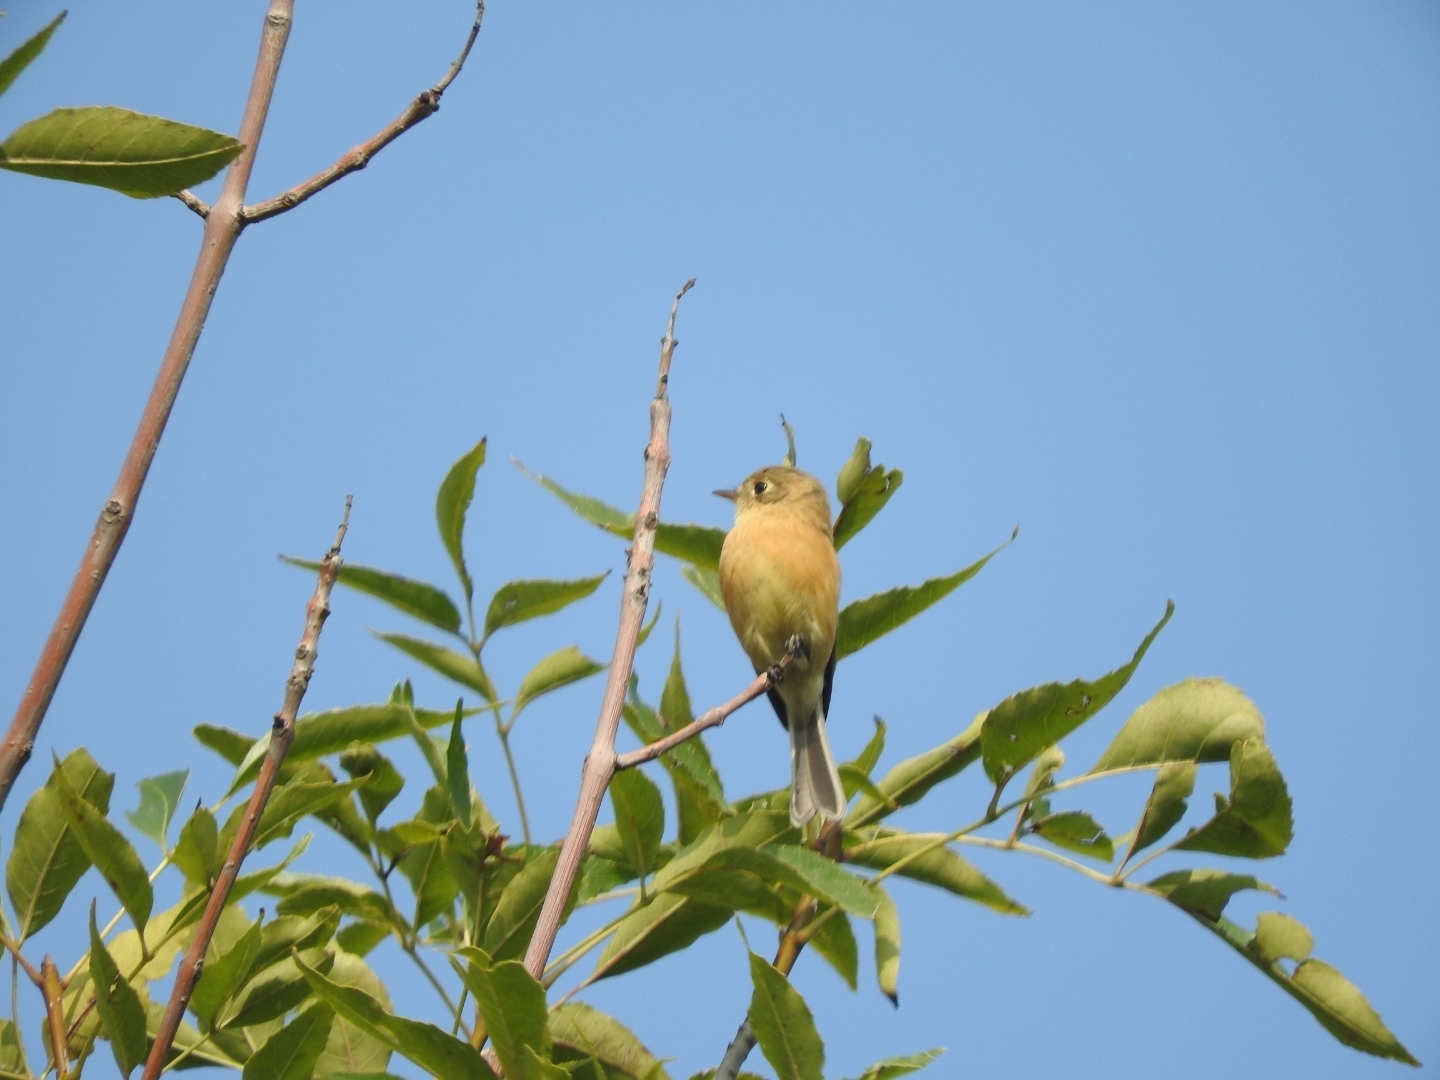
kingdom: Animalia
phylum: Chordata
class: Aves
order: Passeriformes
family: Tyrannidae
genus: Empidonax
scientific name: Empidonax fulvifrons
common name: Buff-breasted flycatcher
